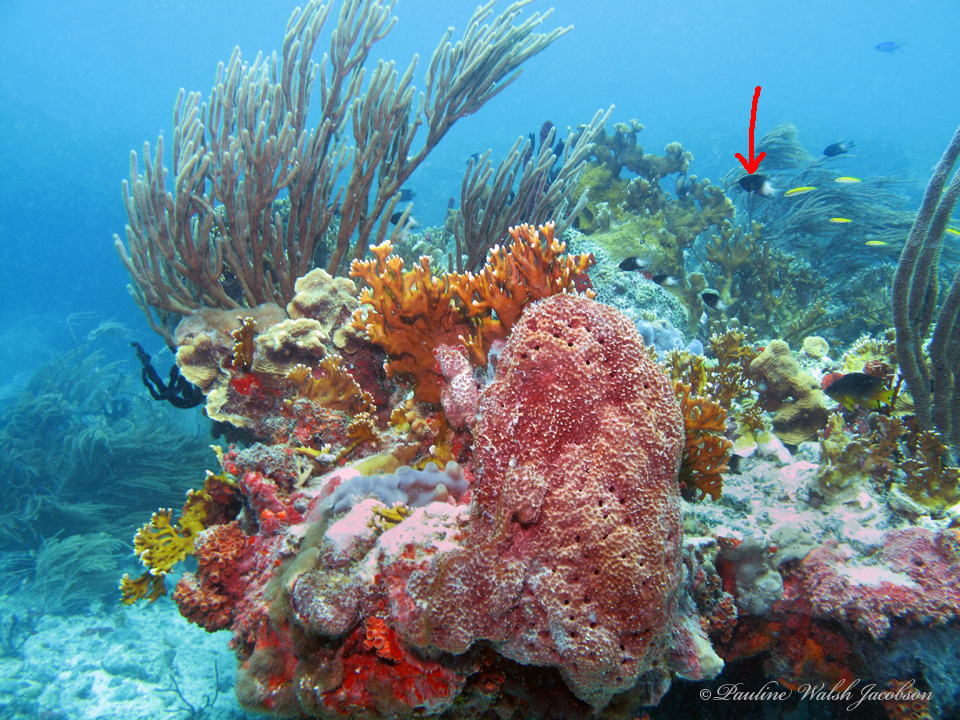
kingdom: Animalia
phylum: Chordata
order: Perciformes
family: Pomacentridae
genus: Stegastes
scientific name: Stegastes partitus
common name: Bicolor damselfish
